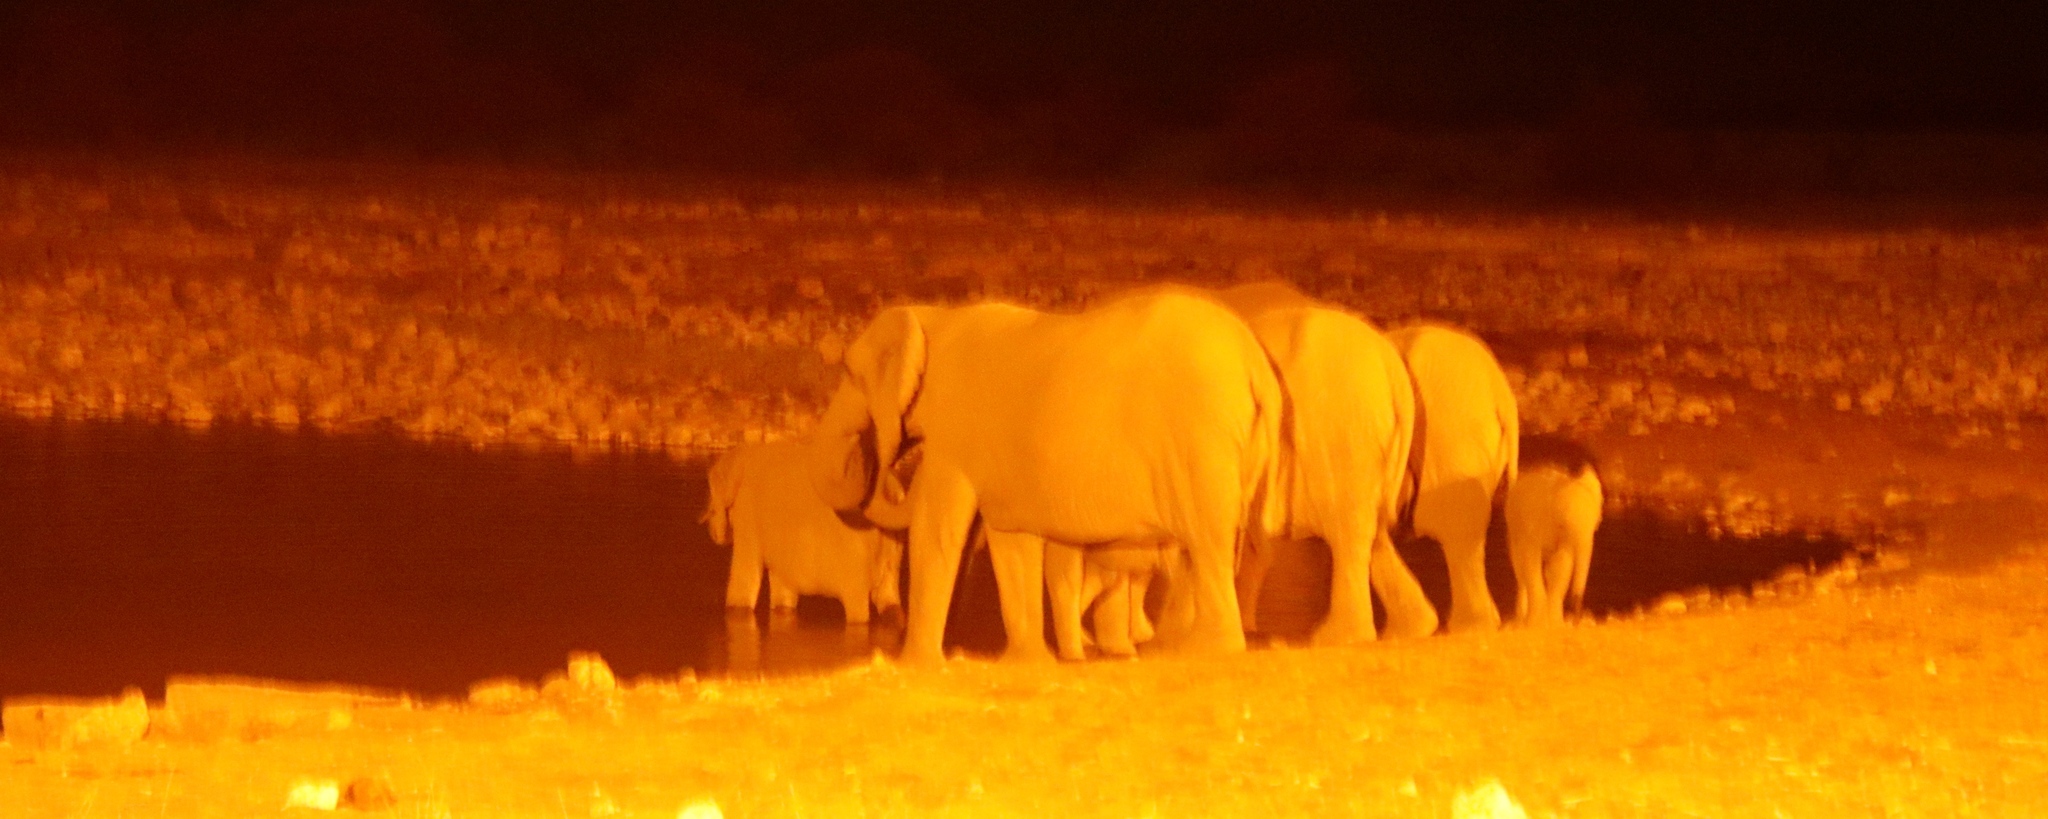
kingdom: Animalia
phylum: Chordata
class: Mammalia
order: Proboscidea
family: Elephantidae
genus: Loxodonta
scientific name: Loxodonta africana
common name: African elephant
